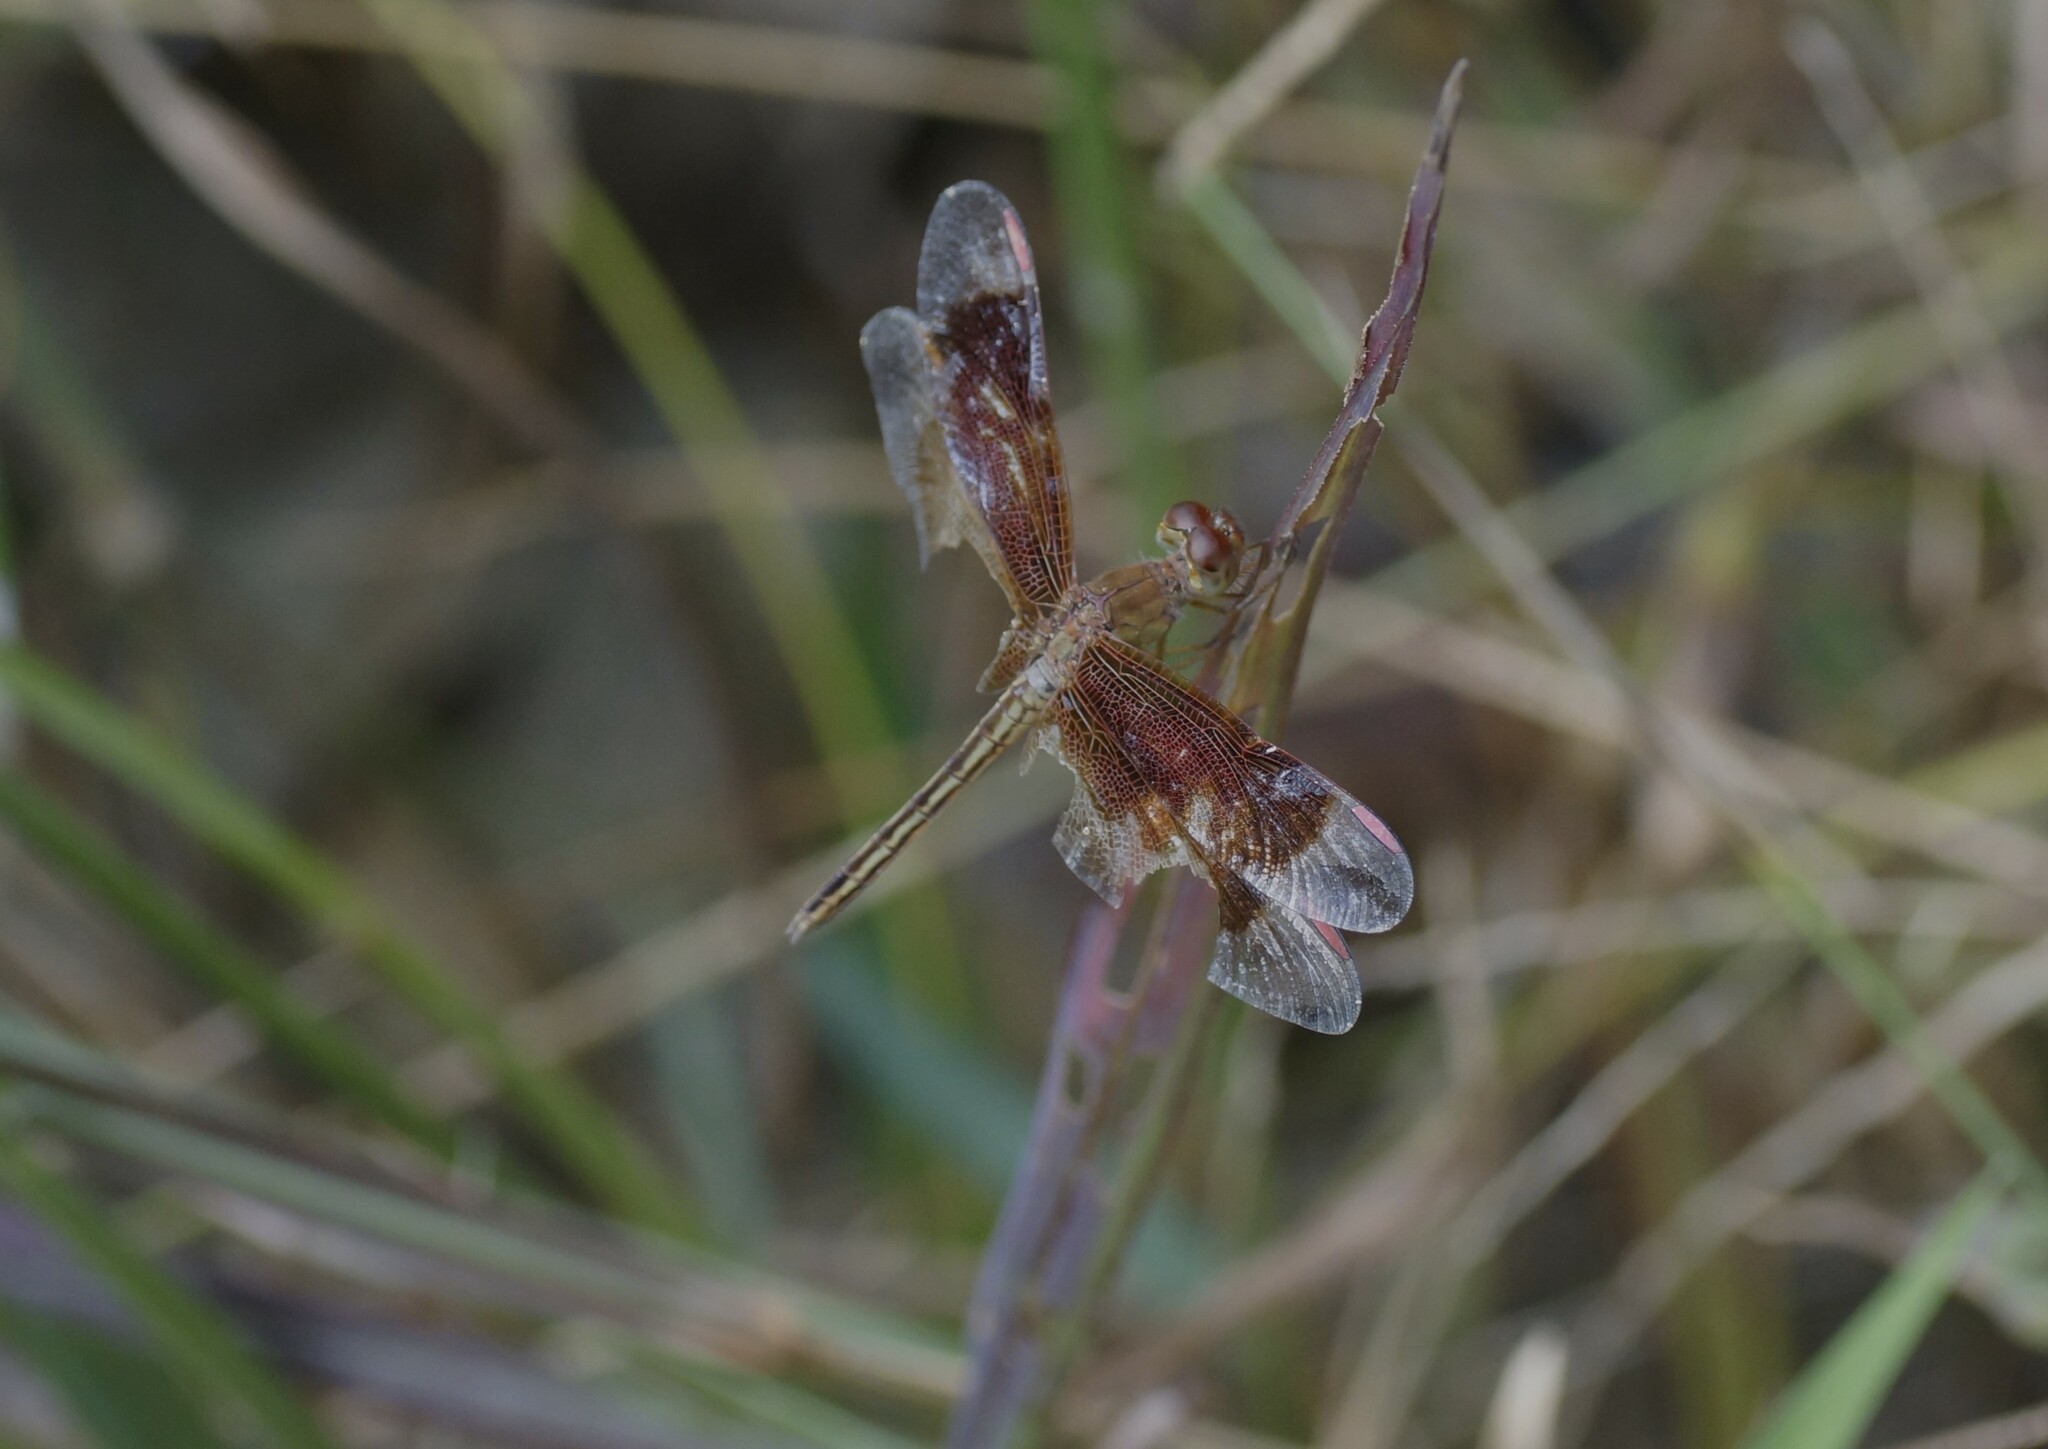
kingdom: Animalia
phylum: Arthropoda
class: Insecta
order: Odonata
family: Libellulidae
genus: Neurothemis
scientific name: Neurothemis stigmatizans
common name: Painted grasshawk
